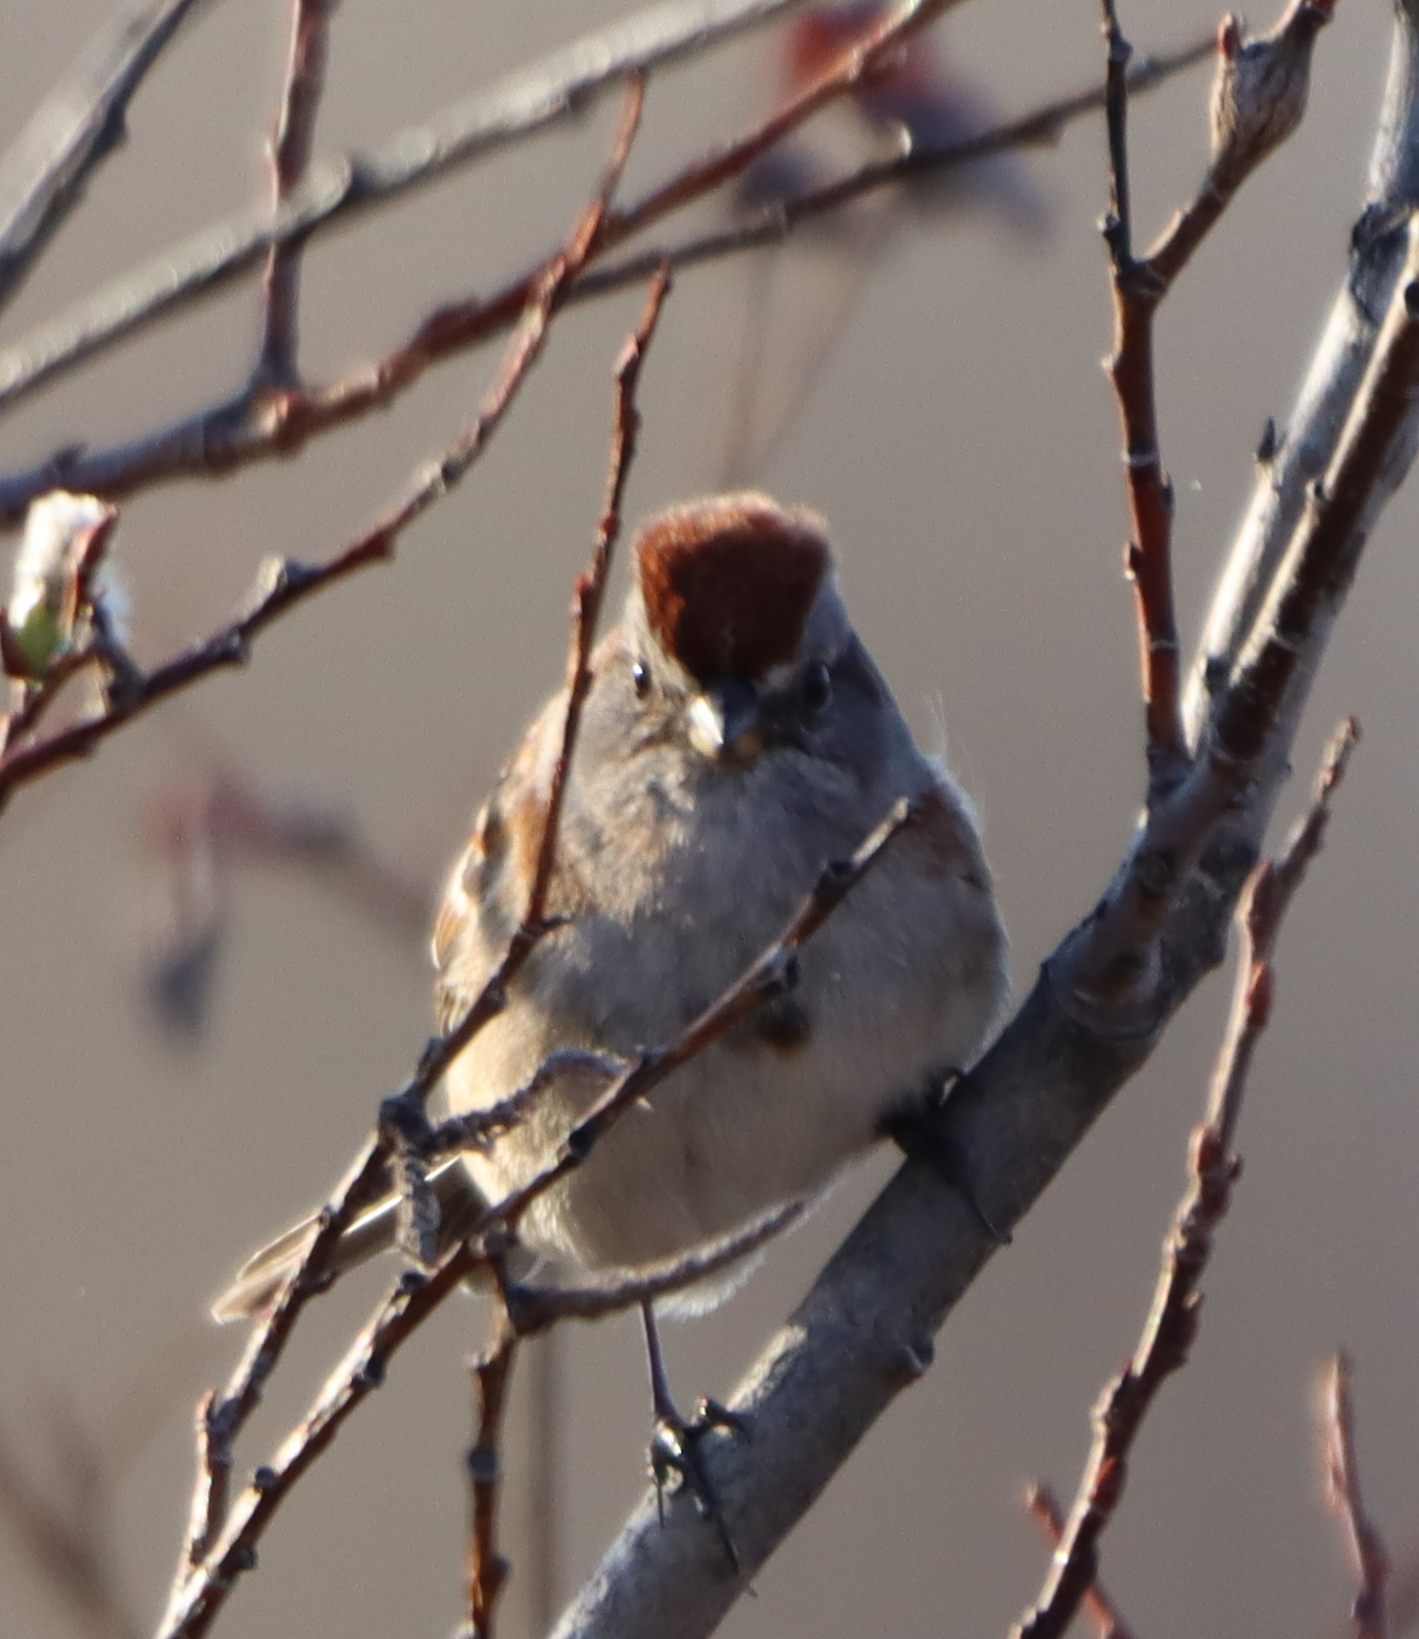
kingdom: Animalia
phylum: Chordata
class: Aves
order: Passeriformes
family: Passerellidae
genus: Spizelloides
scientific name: Spizelloides arborea
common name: American tree sparrow
